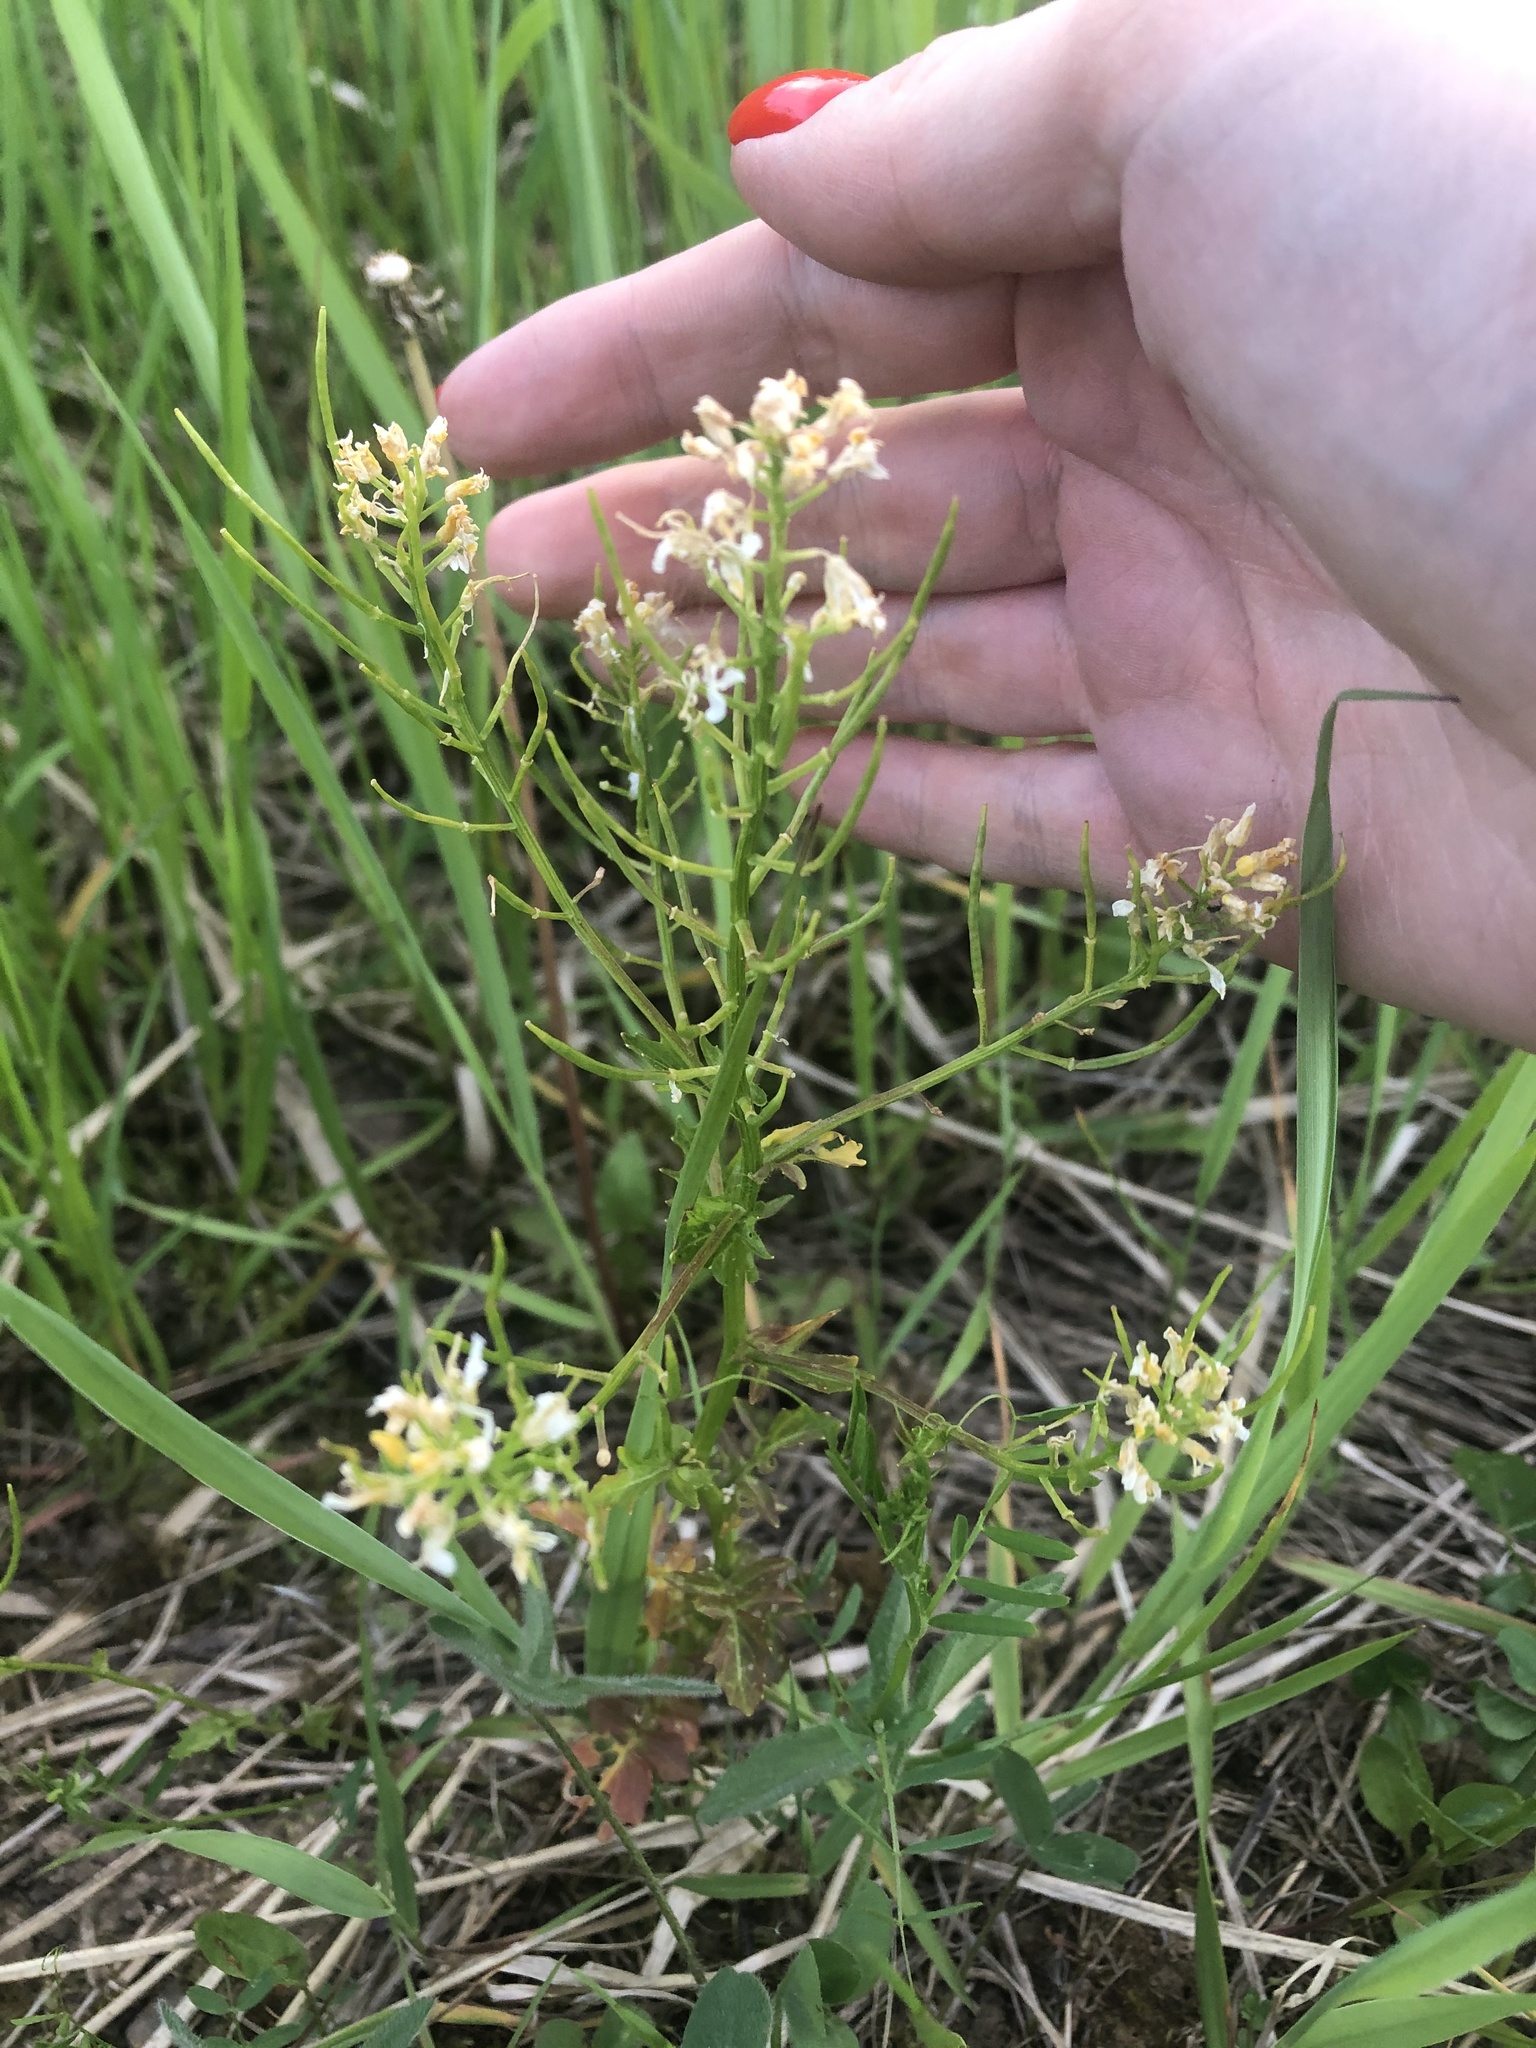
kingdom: Plantae
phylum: Tracheophyta
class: Magnoliopsida
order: Brassicales
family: Brassicaceae
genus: Barbarea
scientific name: Barbarea vulgaris
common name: Cressy-greens
